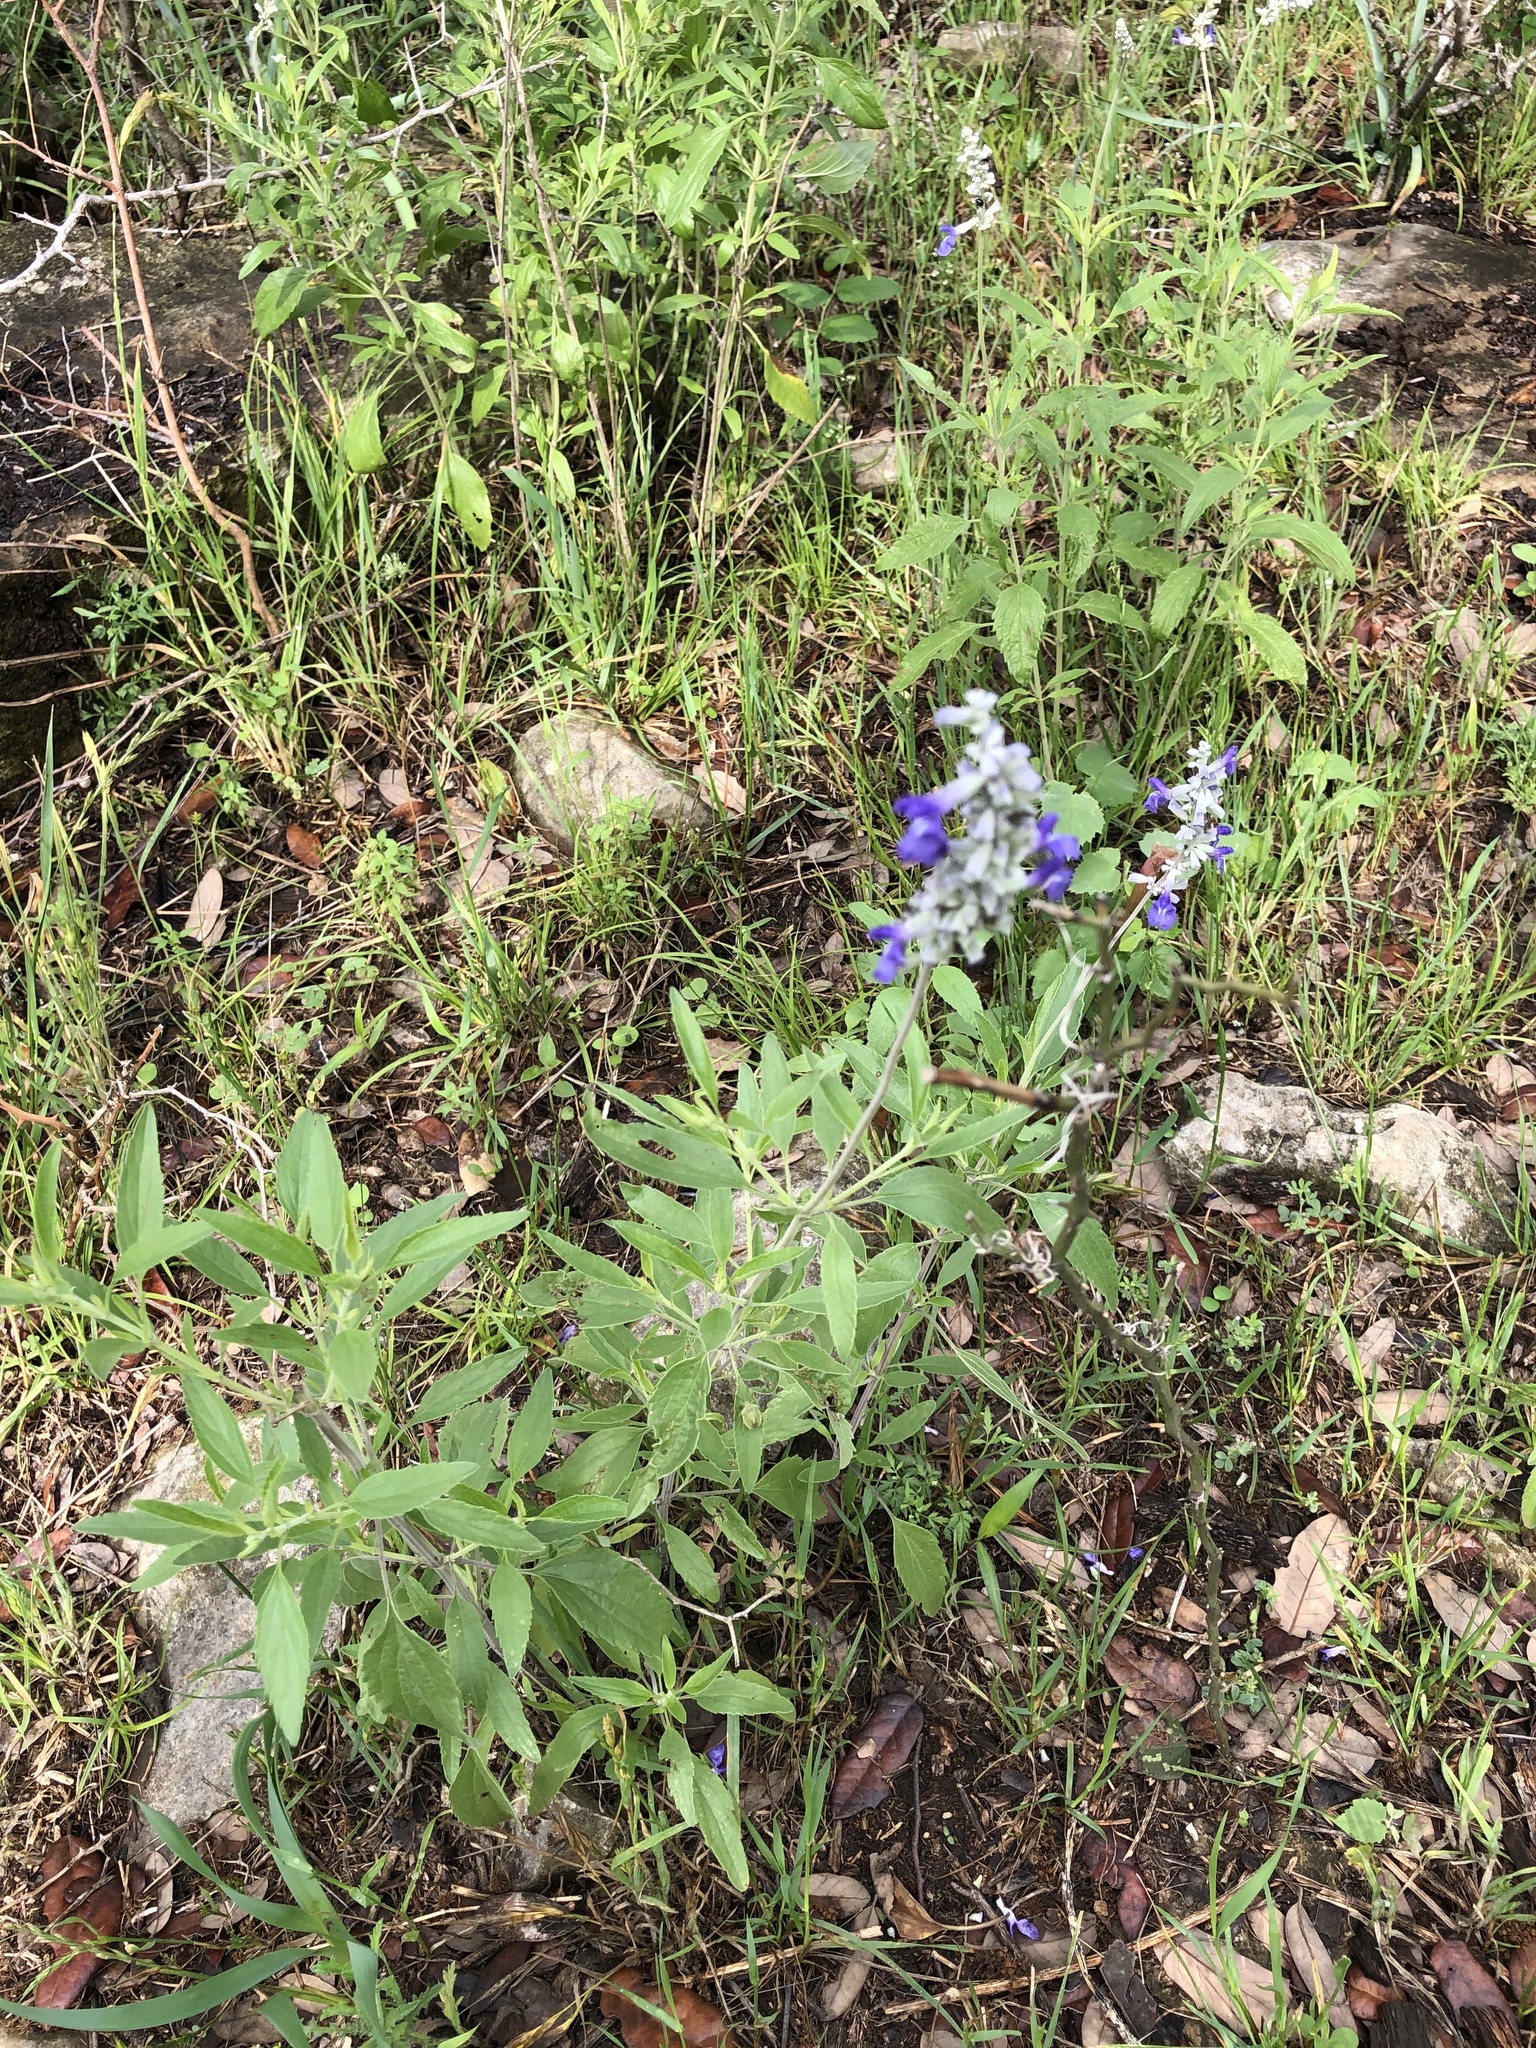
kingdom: Plantae
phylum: Tracheophyta
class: Magnoliopsida
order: Lamiales
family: Lamiaceae
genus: Salvia
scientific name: Salvia farinacea
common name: Mealy sage
